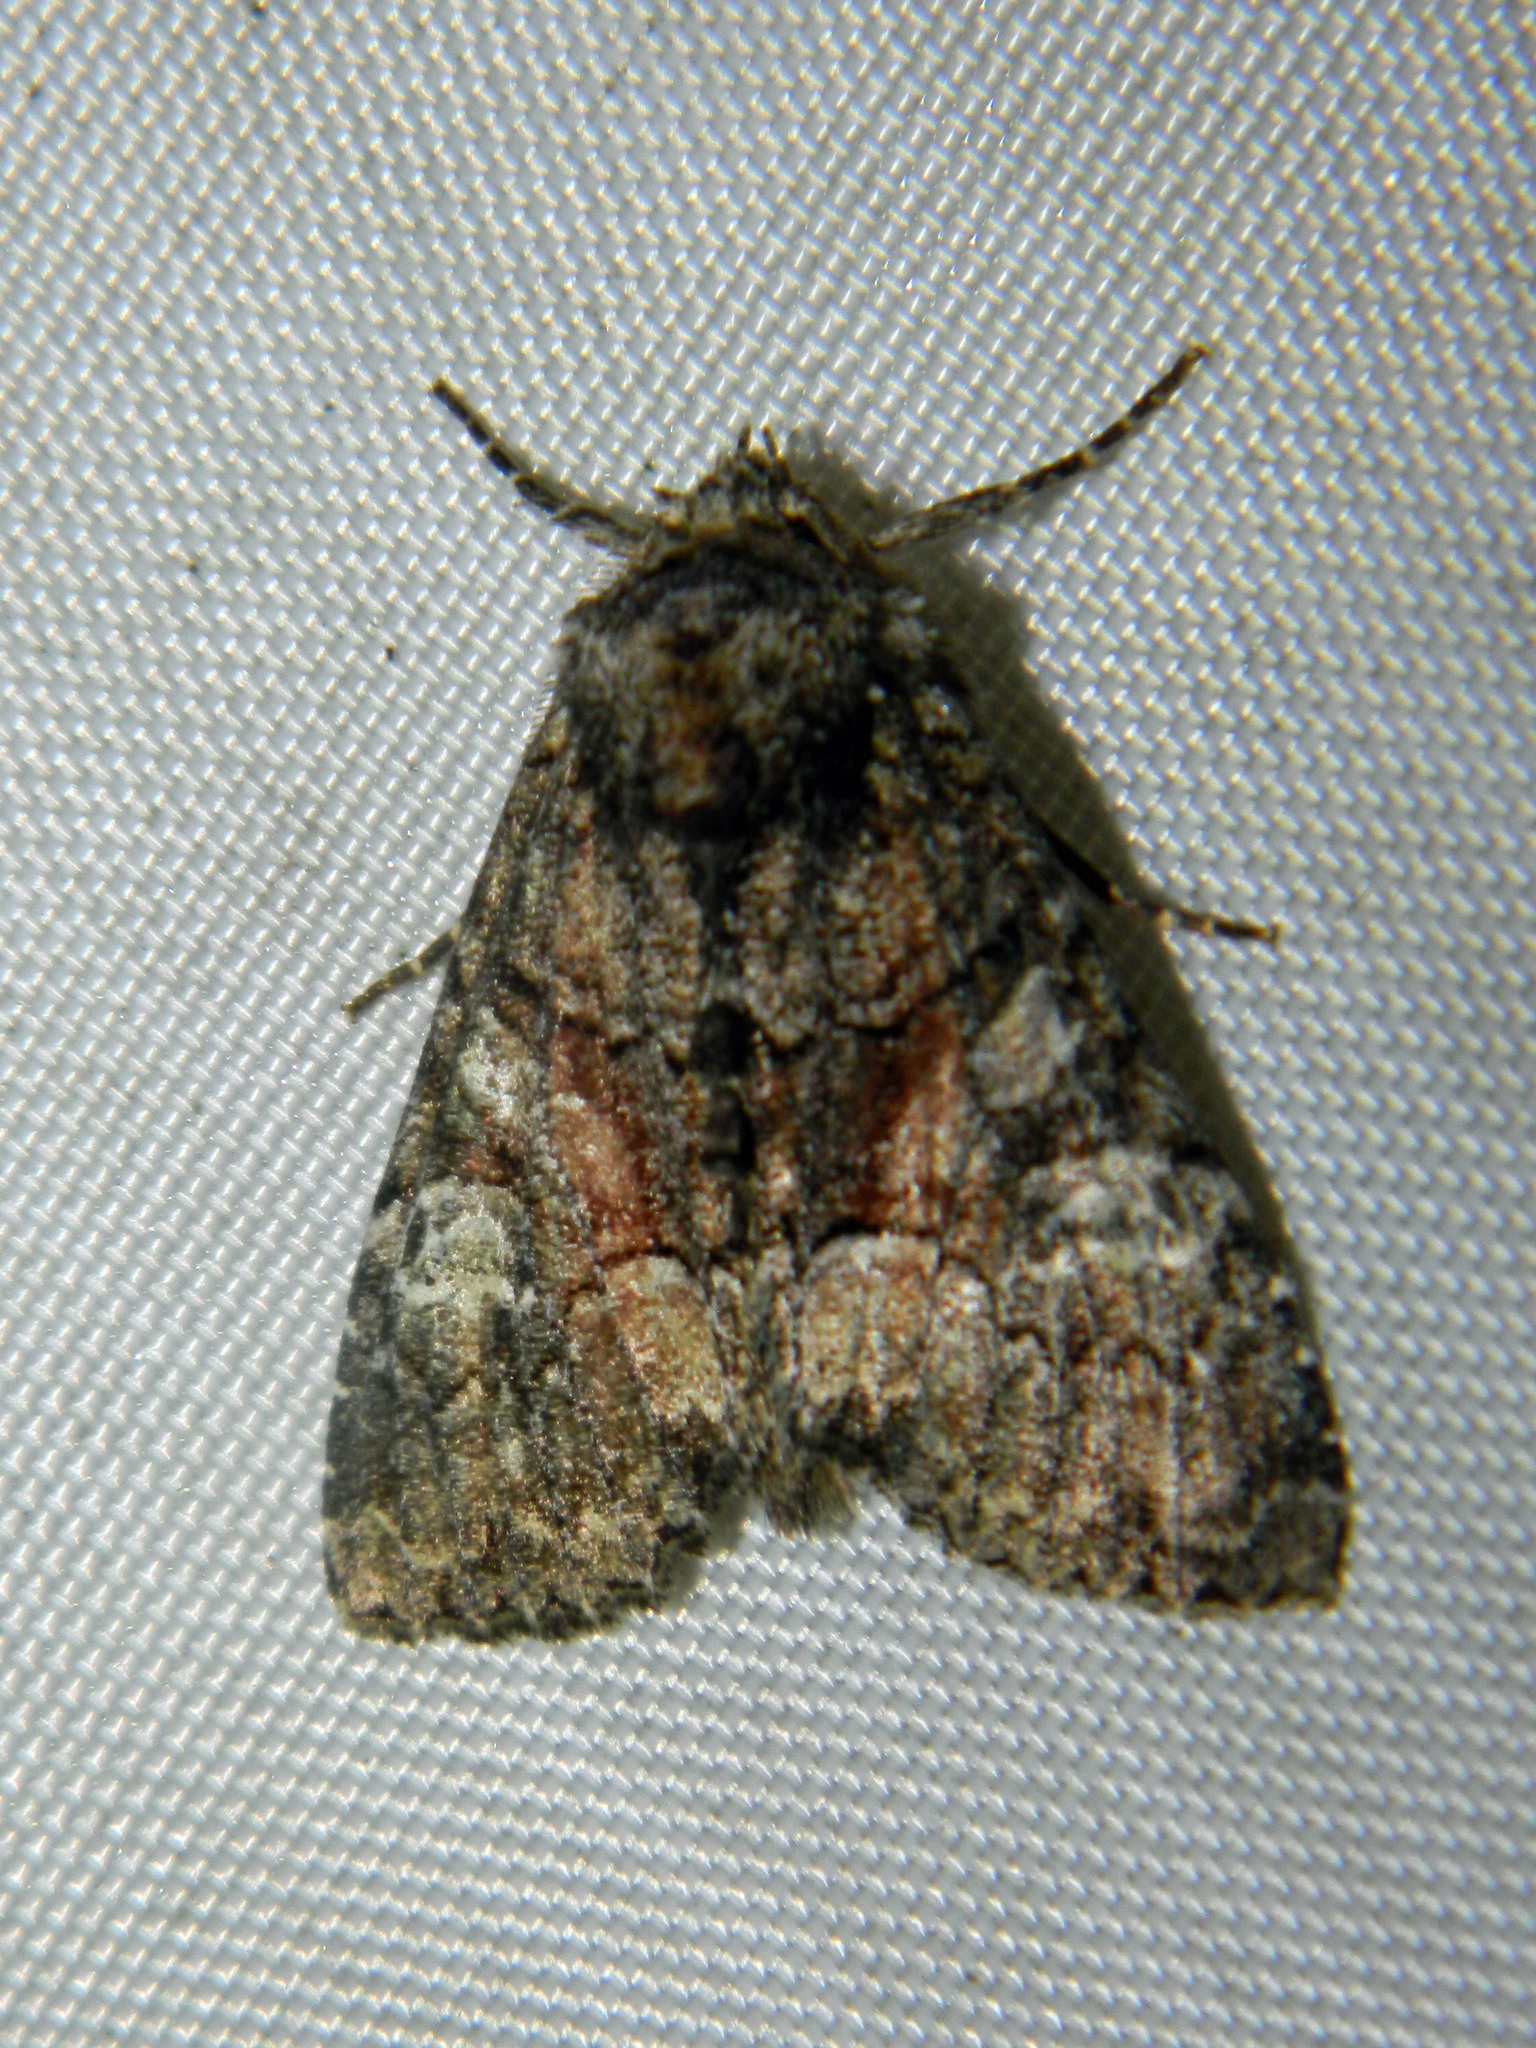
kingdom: Animalia
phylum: Arthropoda
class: Insecta
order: Lepidoptera
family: Noctuidae
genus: Fishia
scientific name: Fishia illocata
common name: Wandering brocade moth
